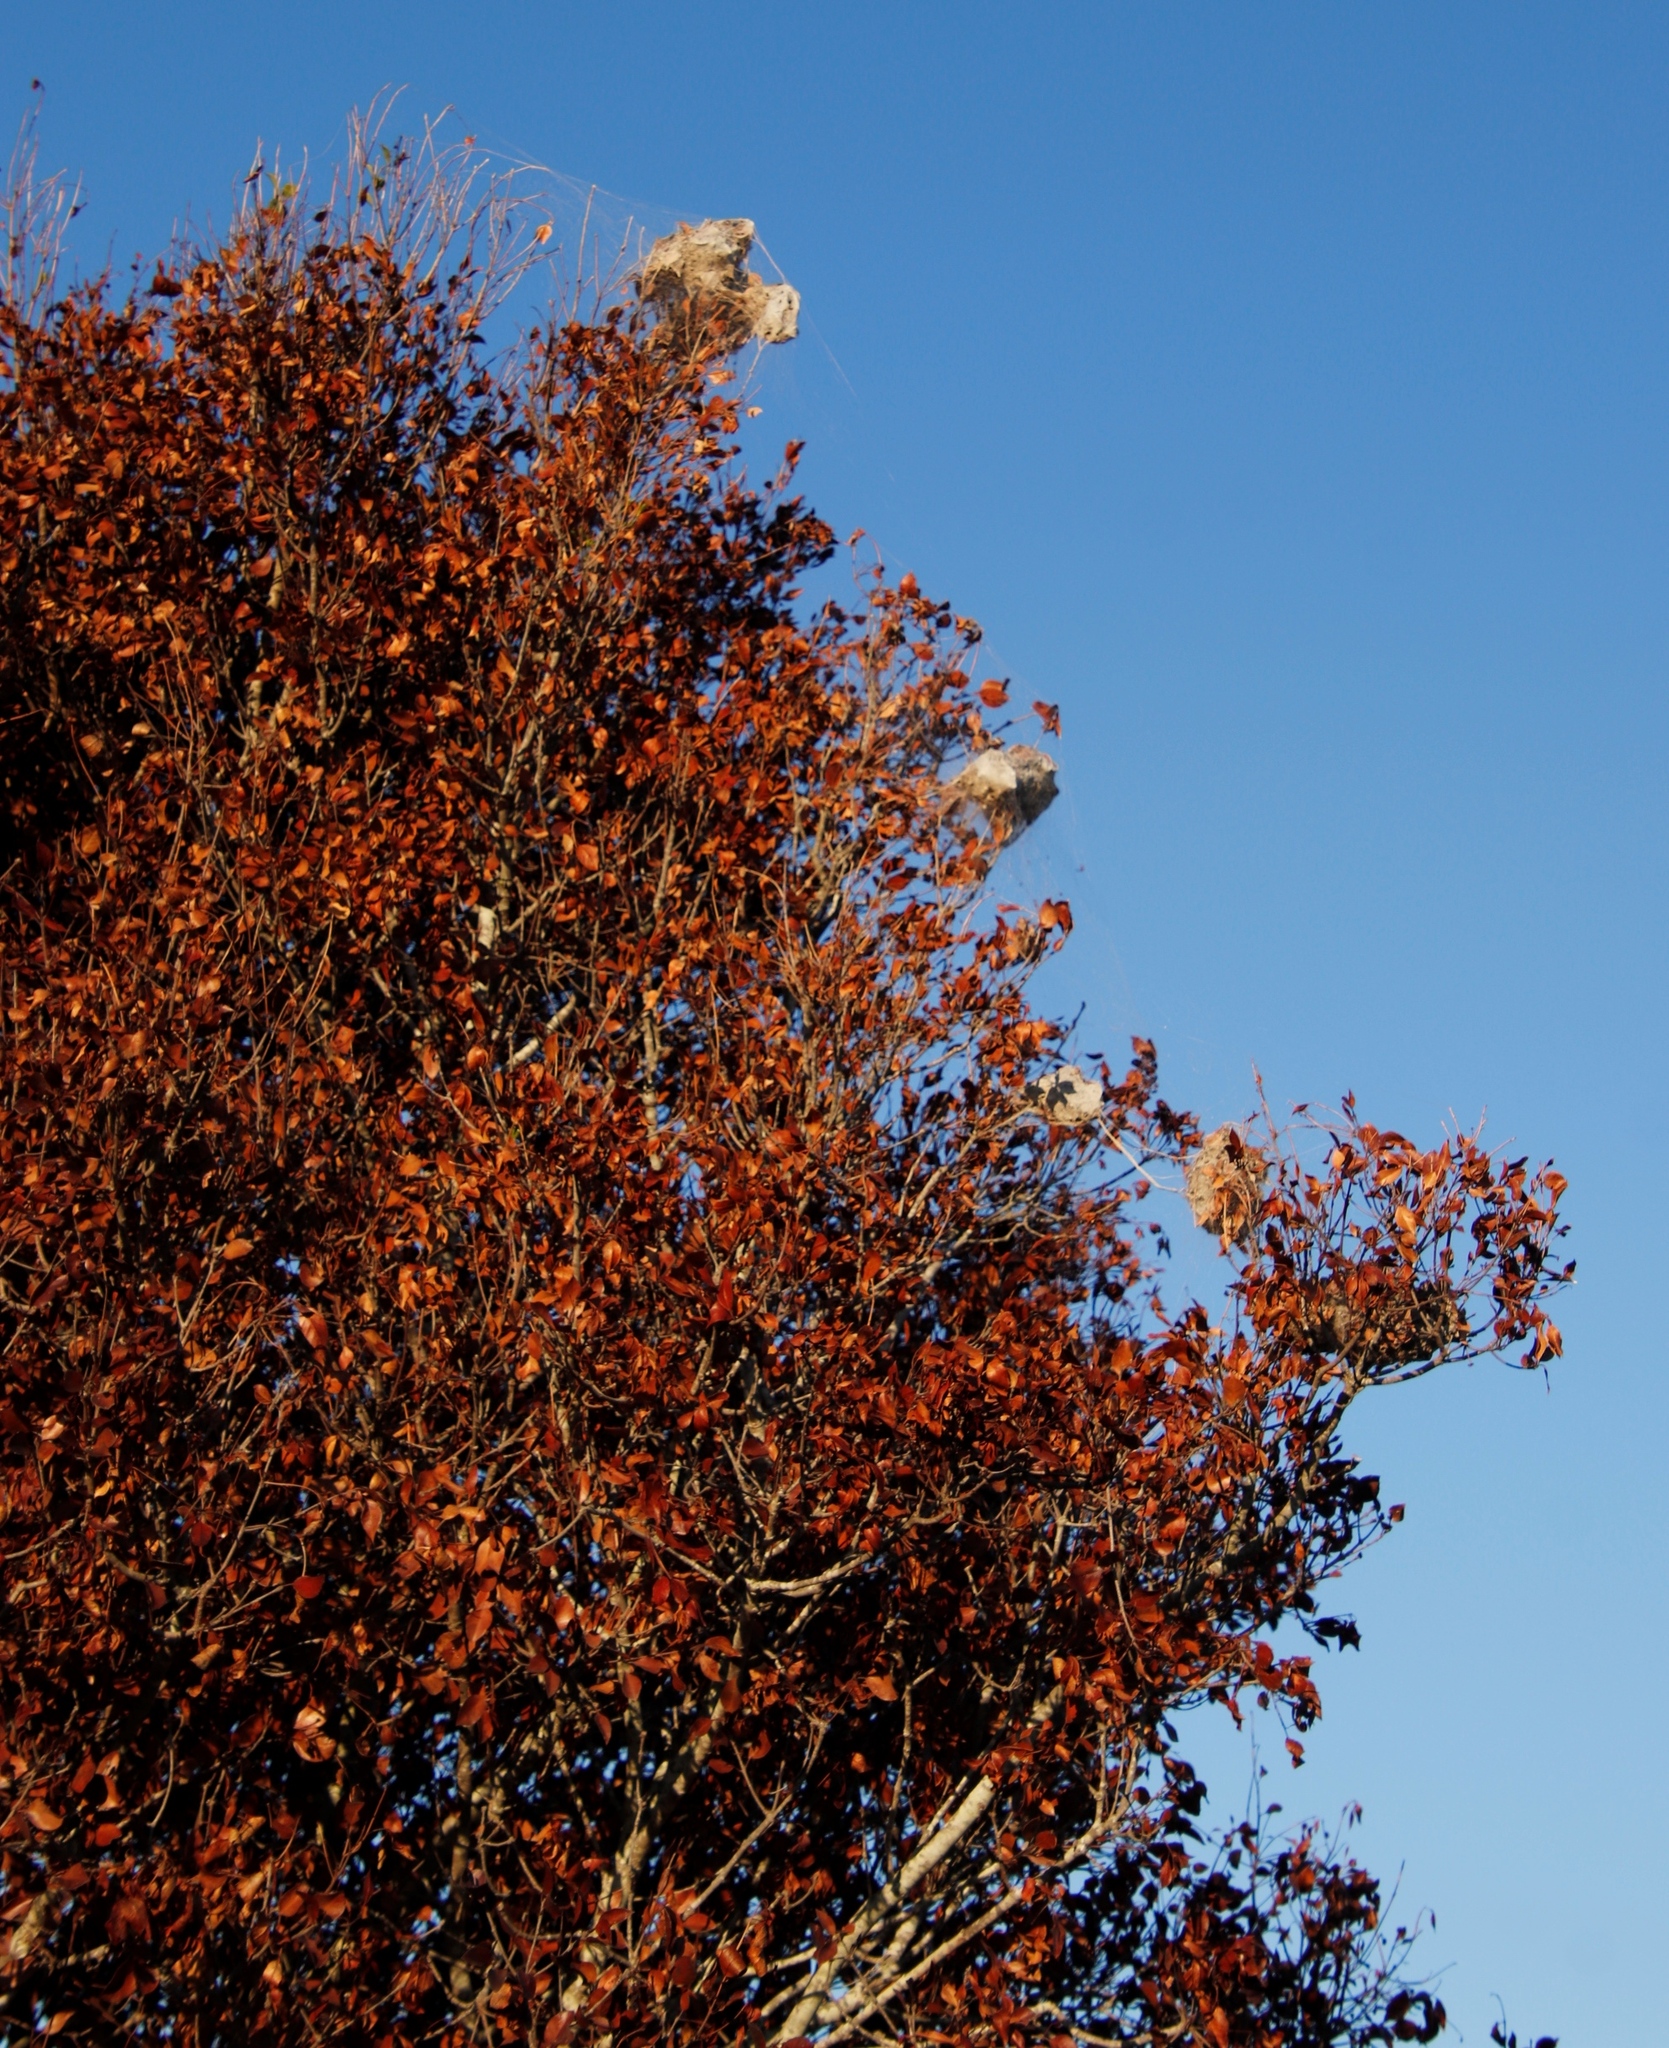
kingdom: Animalia
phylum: Arthropoda
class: Arachnida
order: Araneae
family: Eresidae
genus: Stegodyphus
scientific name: Stegodyphus dumicola
